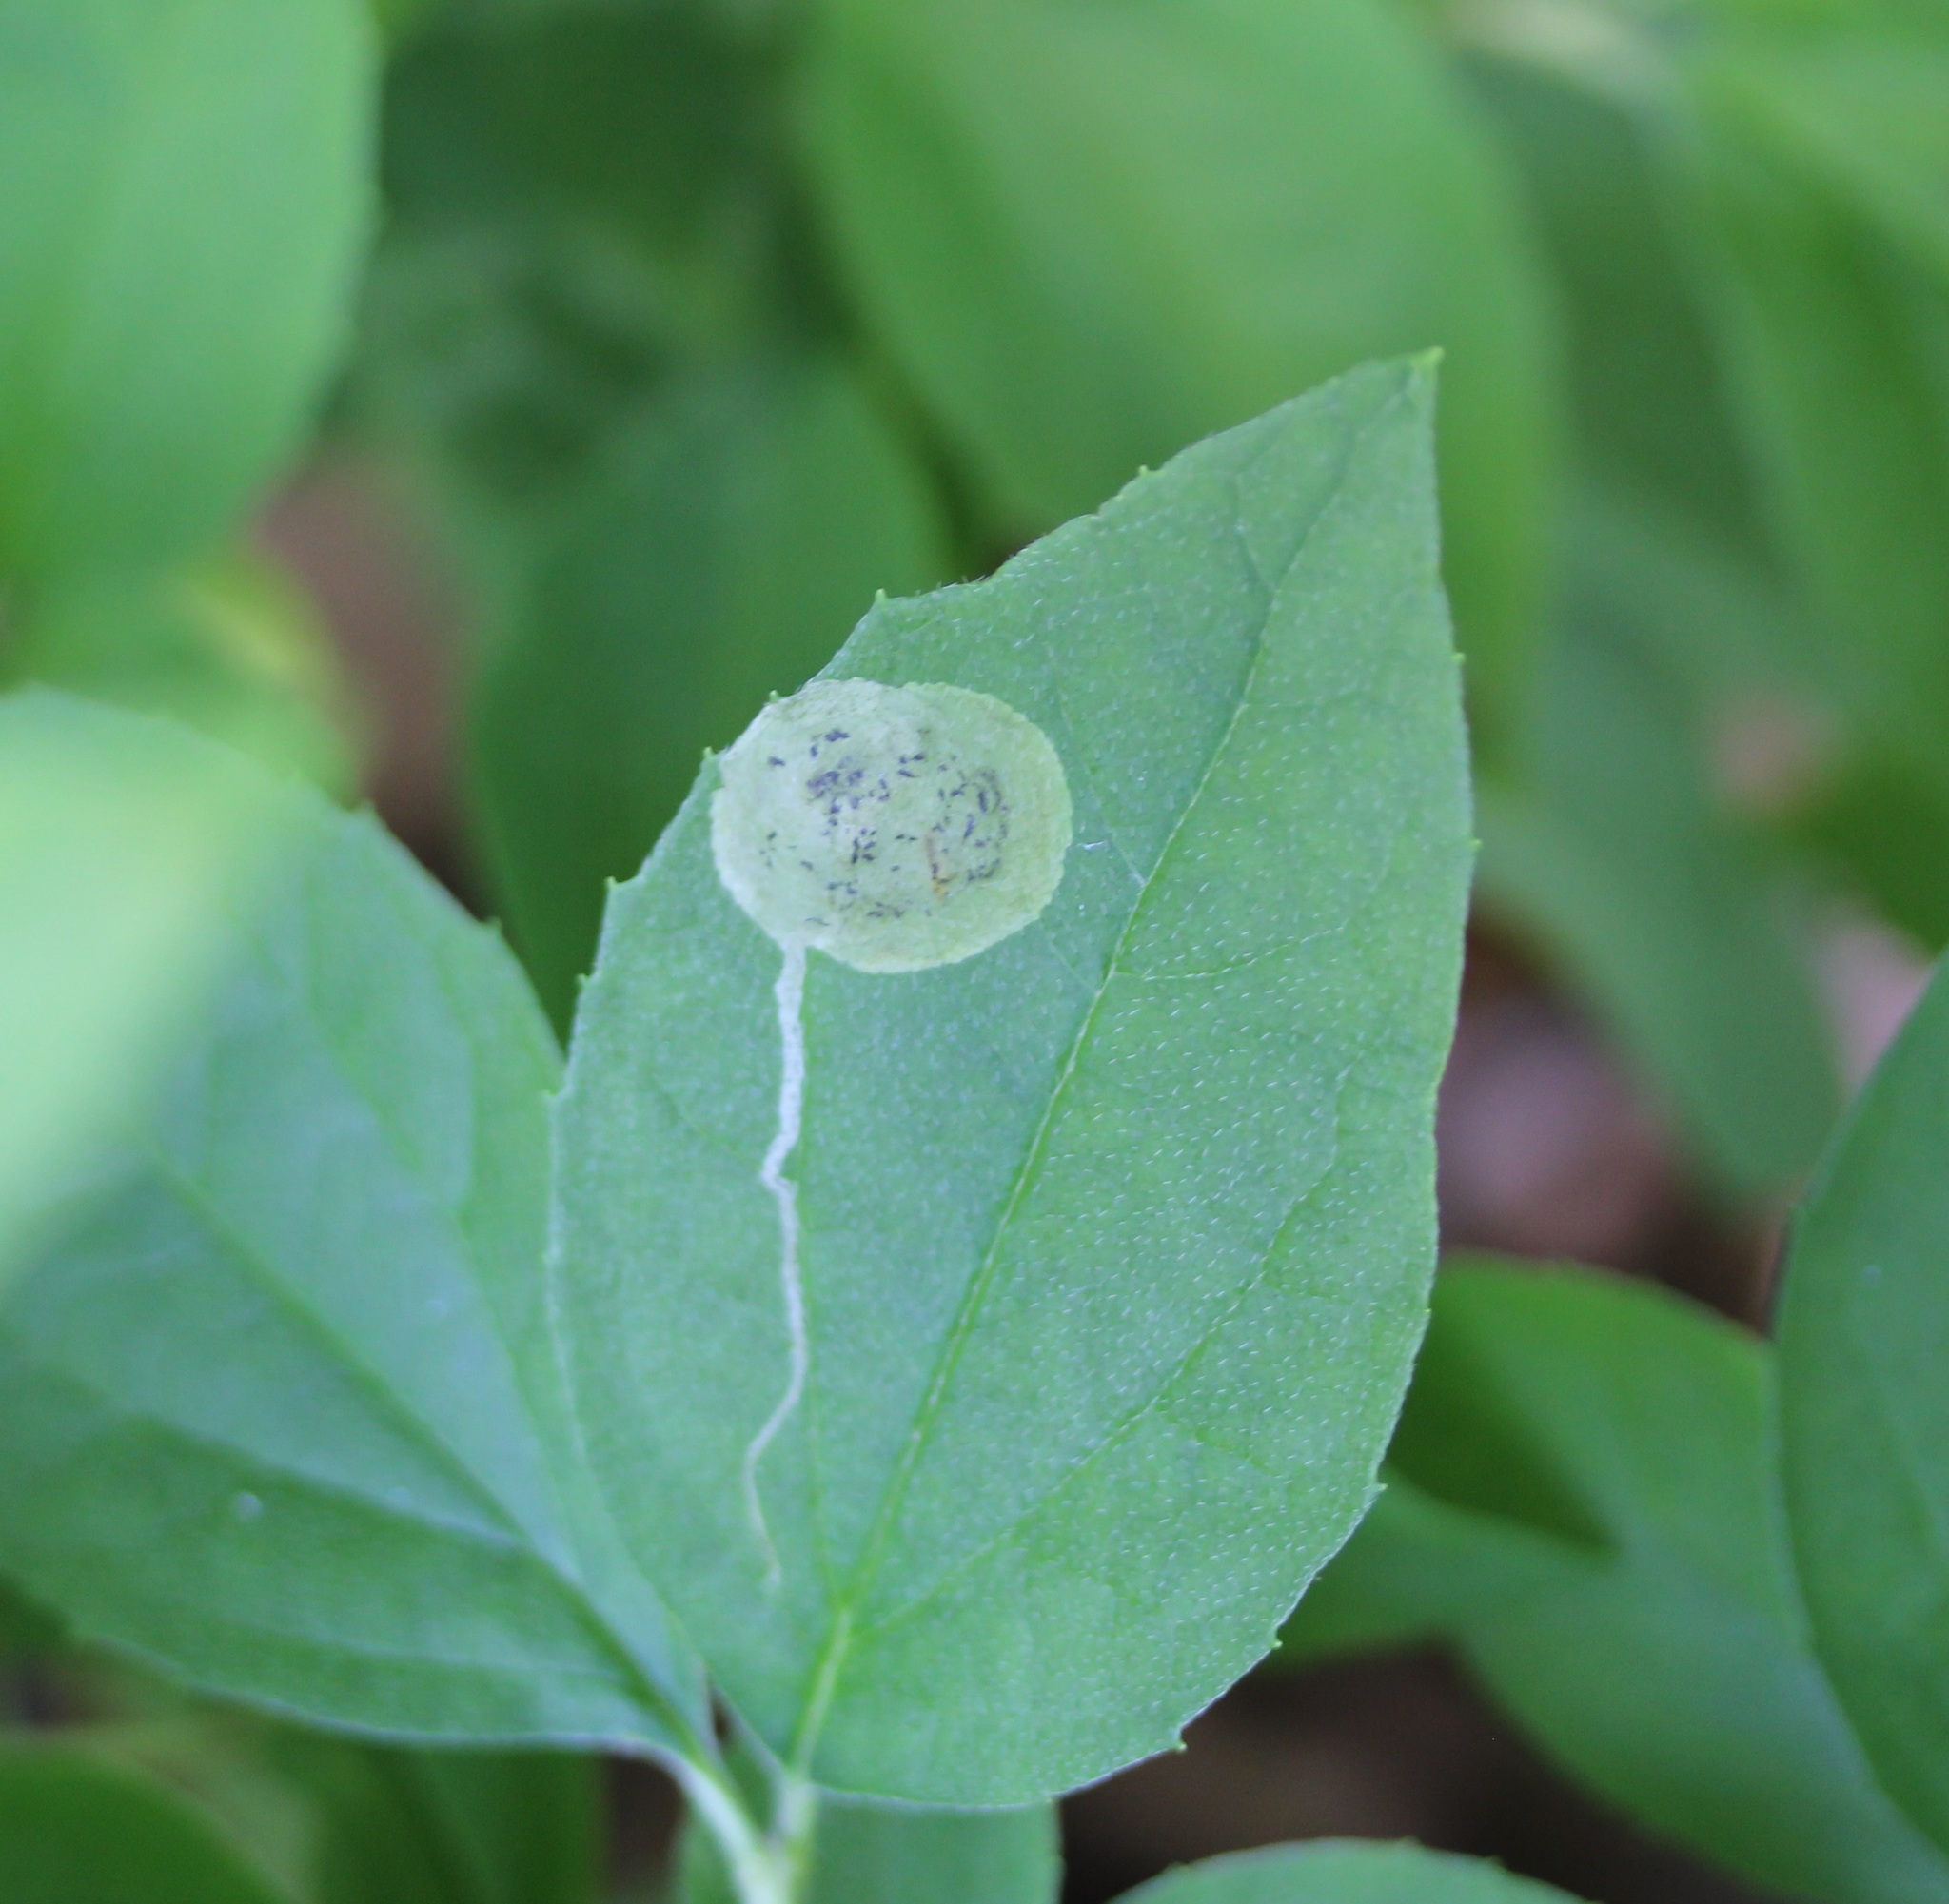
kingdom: Animalia
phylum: Arthropoda
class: Insecta
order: Diptera
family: Agromyzidae
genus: Liriomyza
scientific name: Liriomyza philadelphivora
